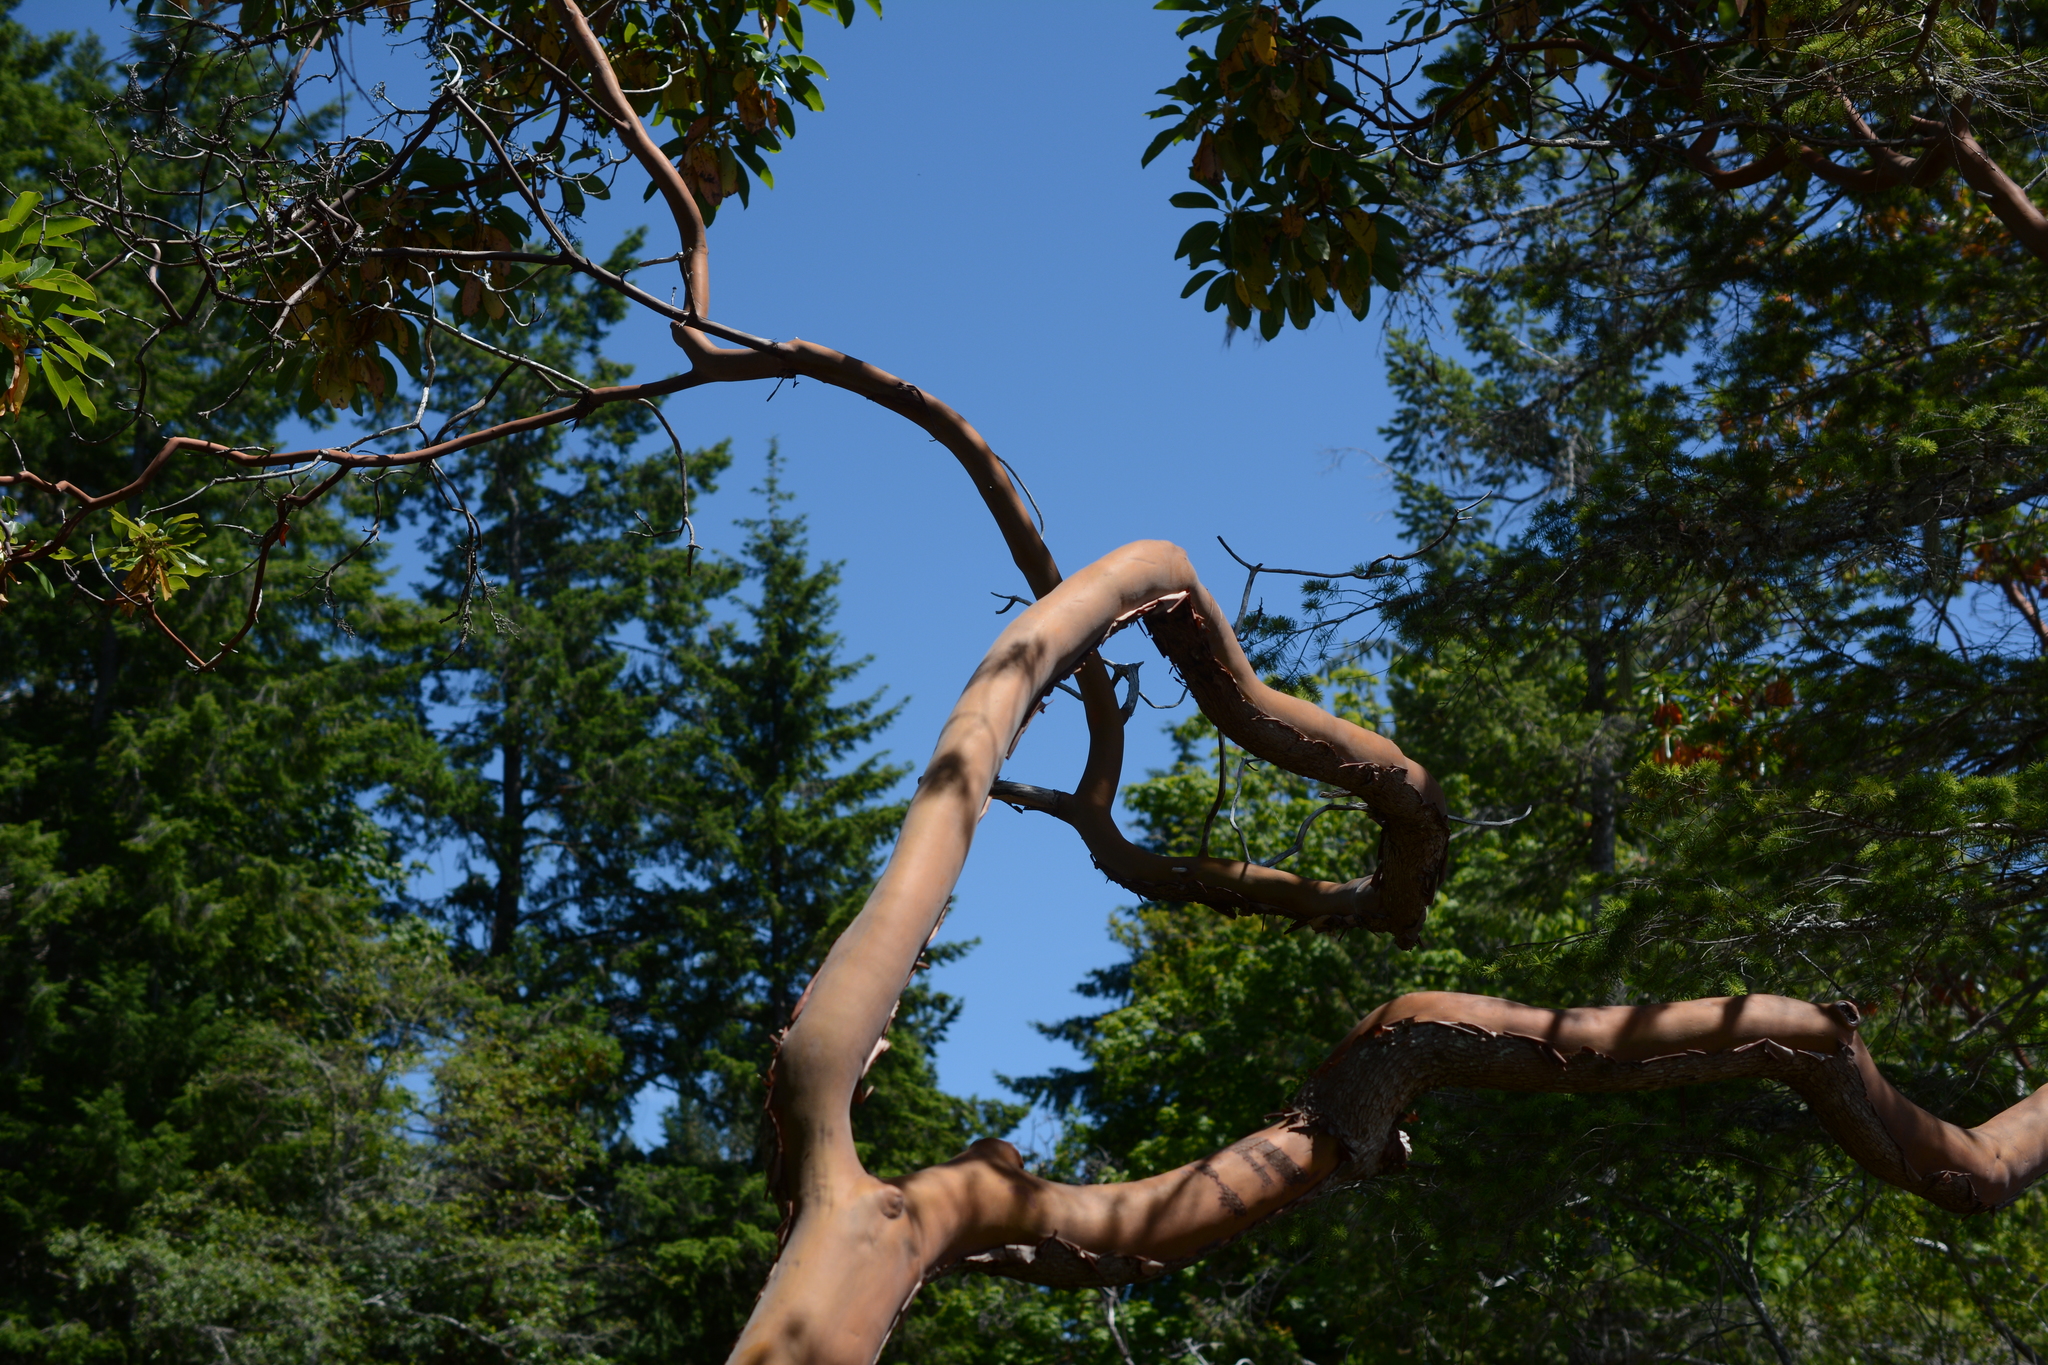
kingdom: Plantae
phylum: Tracheophyta
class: Magnoliopsida
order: Ericales
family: Ericaceae
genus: Arbutus
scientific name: Arbutus menziesii
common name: Pacific madrone
